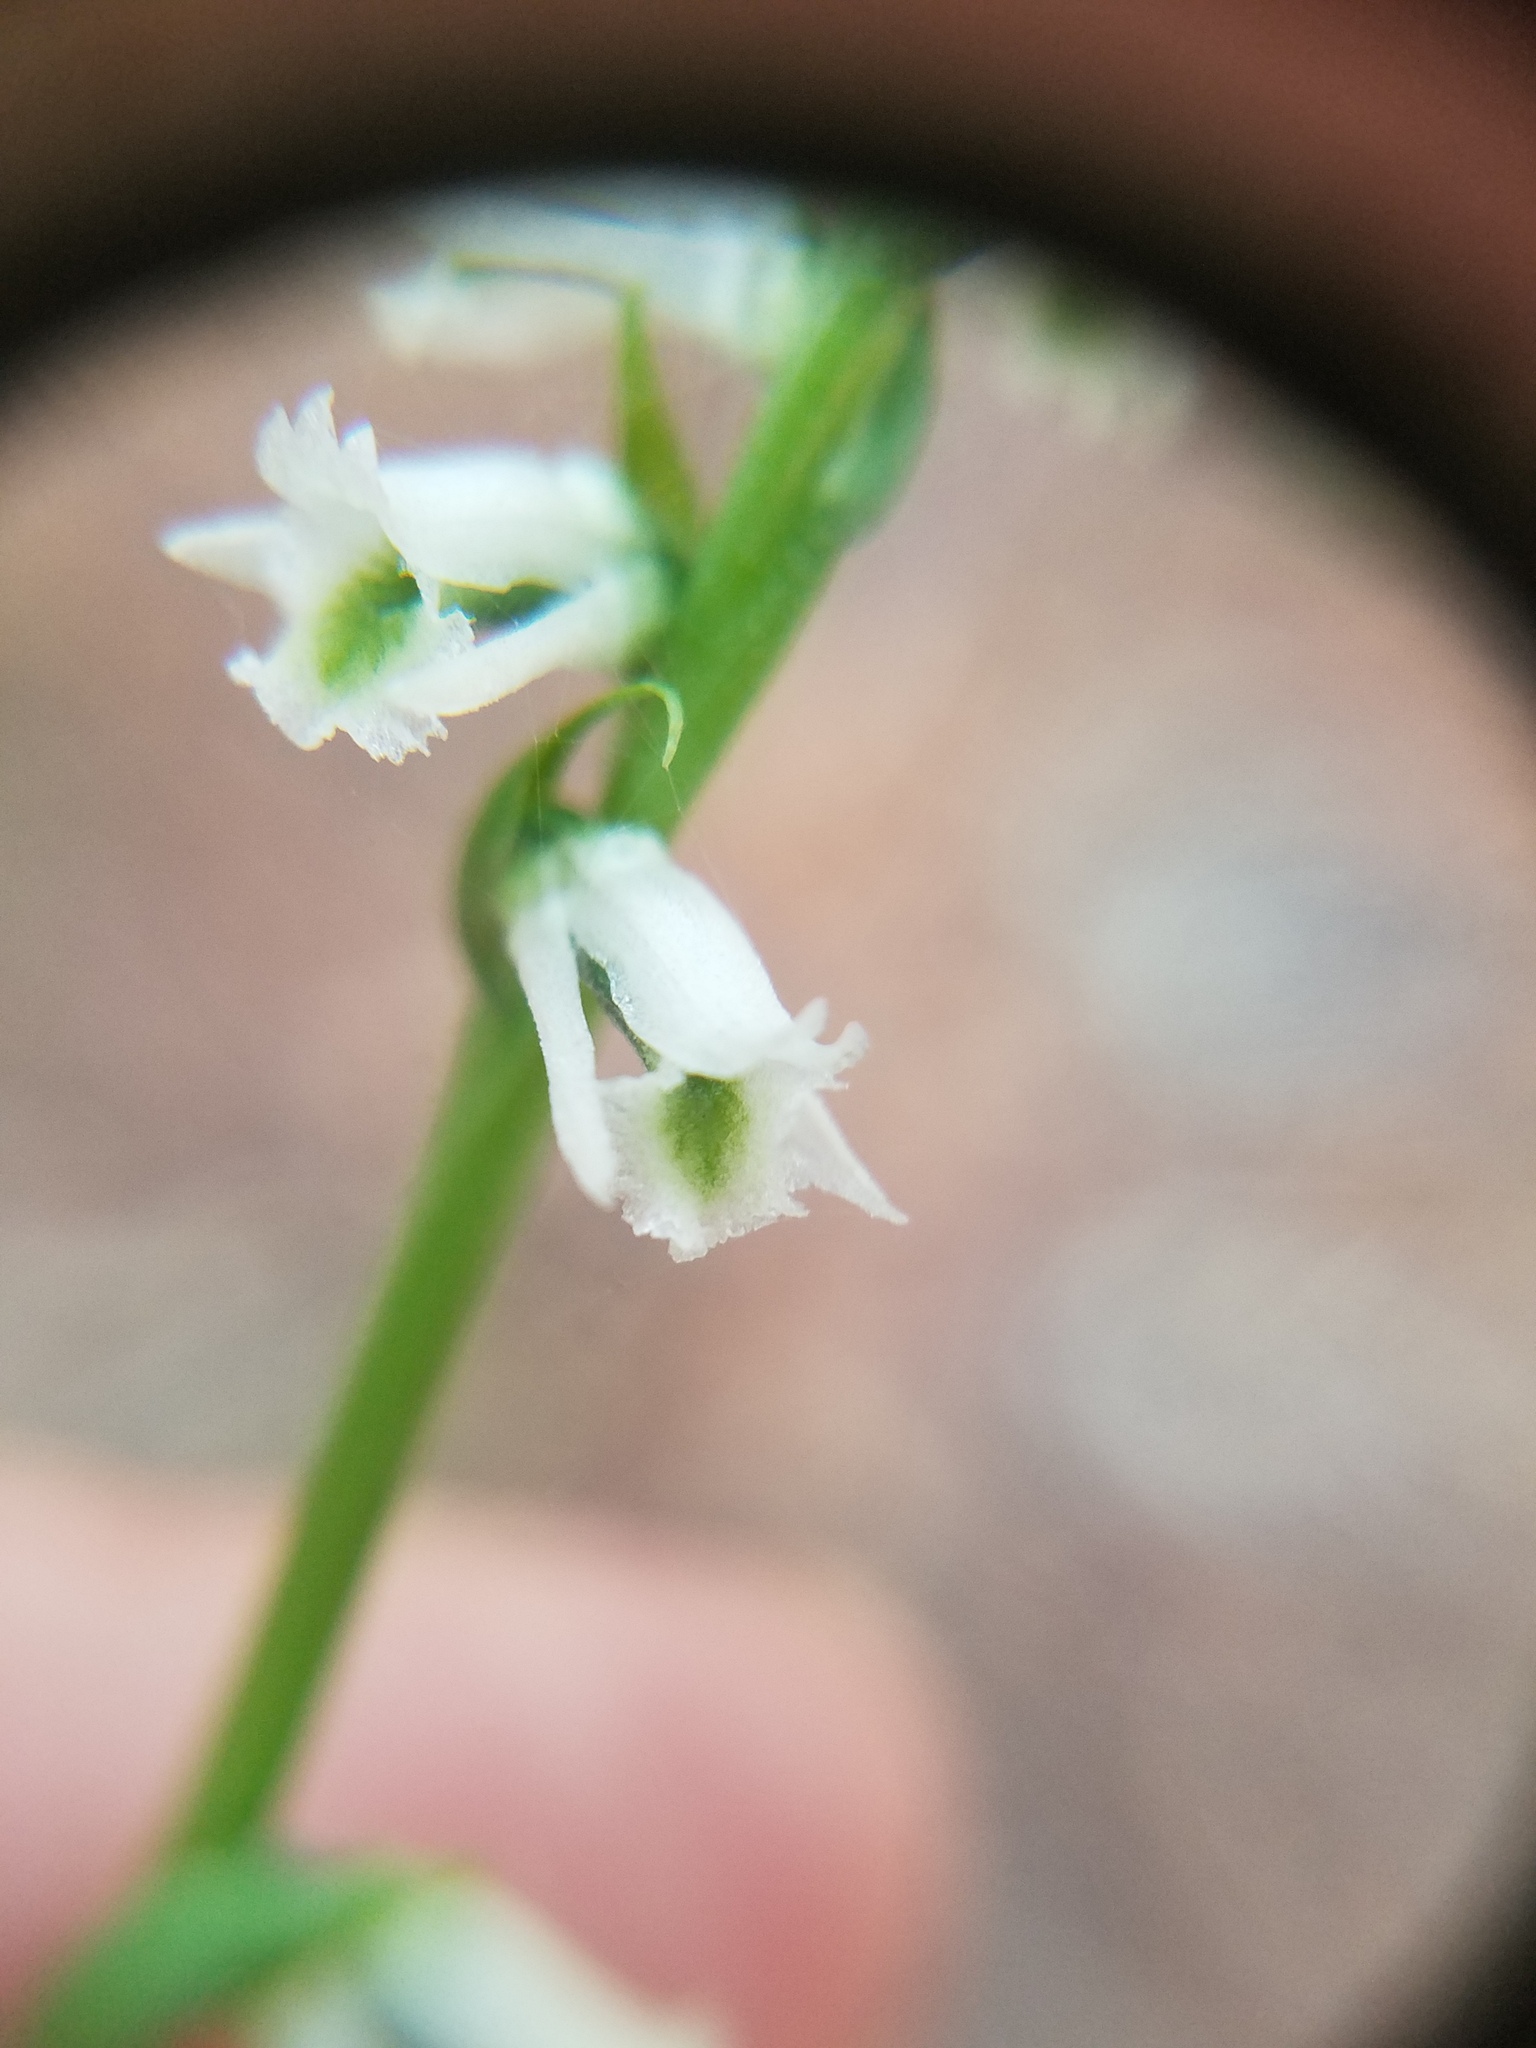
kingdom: Plantae
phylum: Tracheophyta
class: Liliopsida
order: Asparagales
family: Orchidaceae
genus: Spiranthes
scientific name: Spiranthes lacera
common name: Northern slender ladies'-tresses
